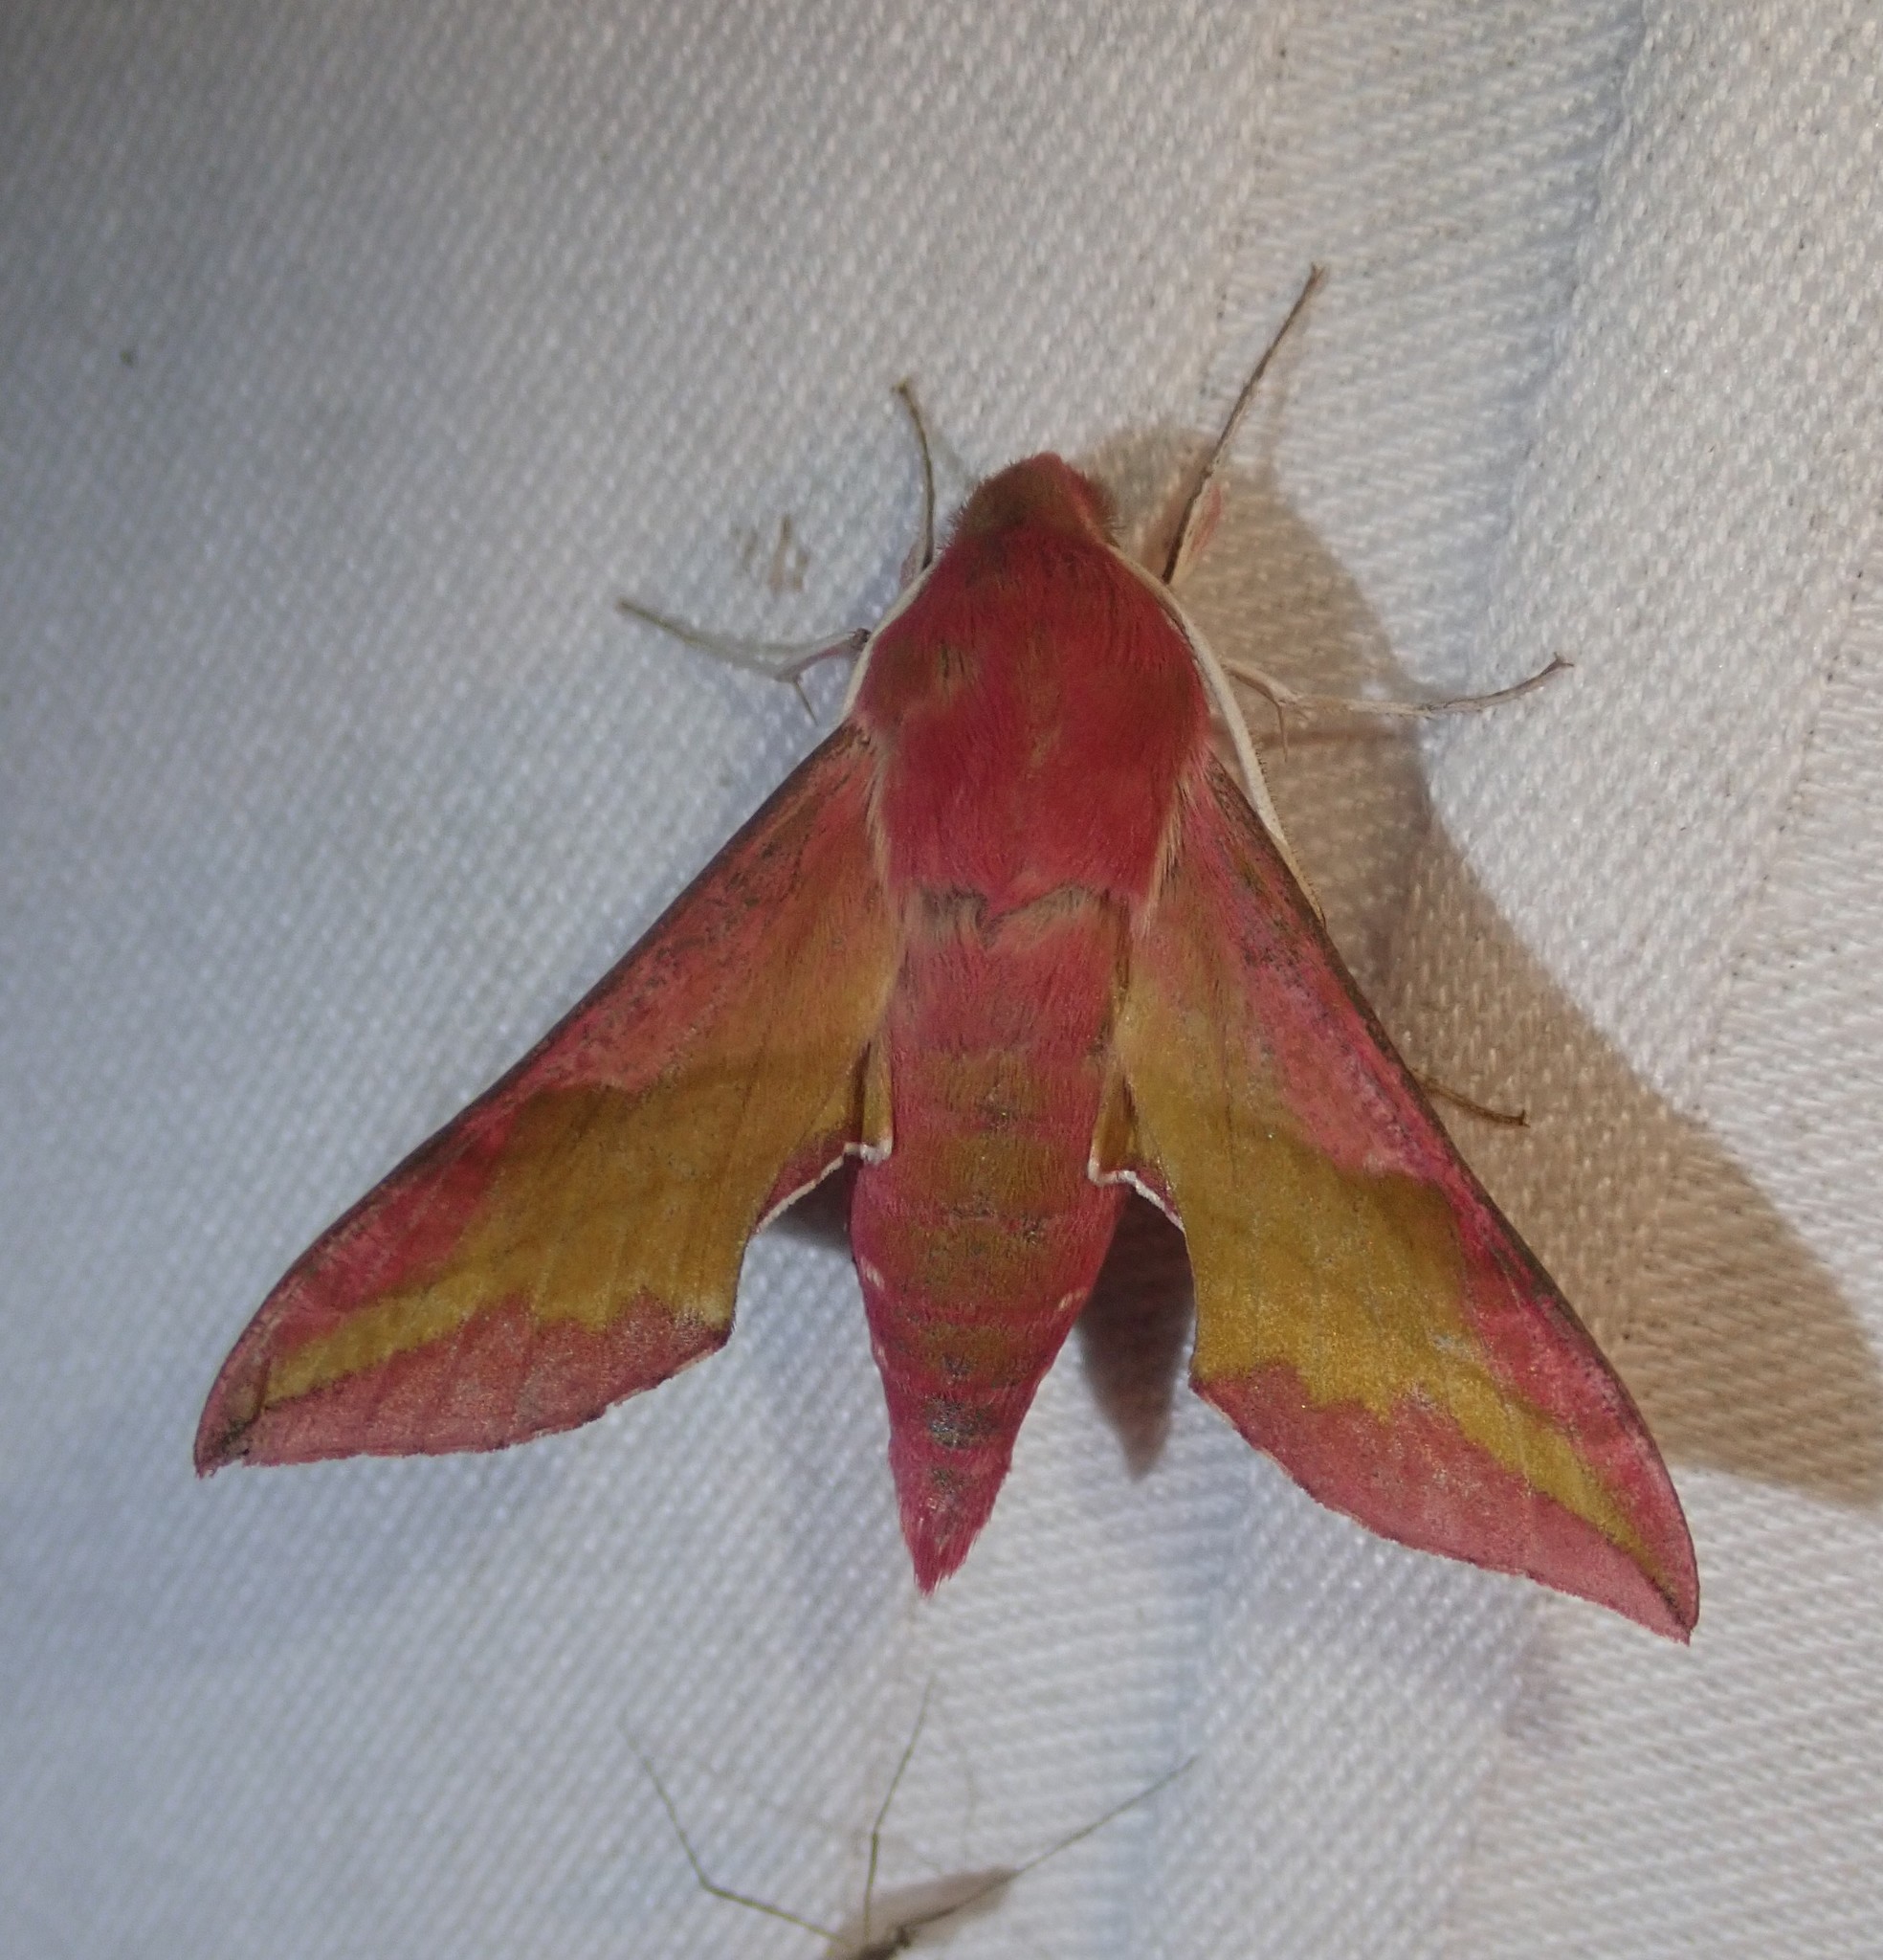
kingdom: Animalia
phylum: Arthropoda
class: Insecta
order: Lepidoptera
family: Sphingidae
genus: Deilephila
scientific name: Deilephila porcellus
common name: Small elephant hawk-moth
